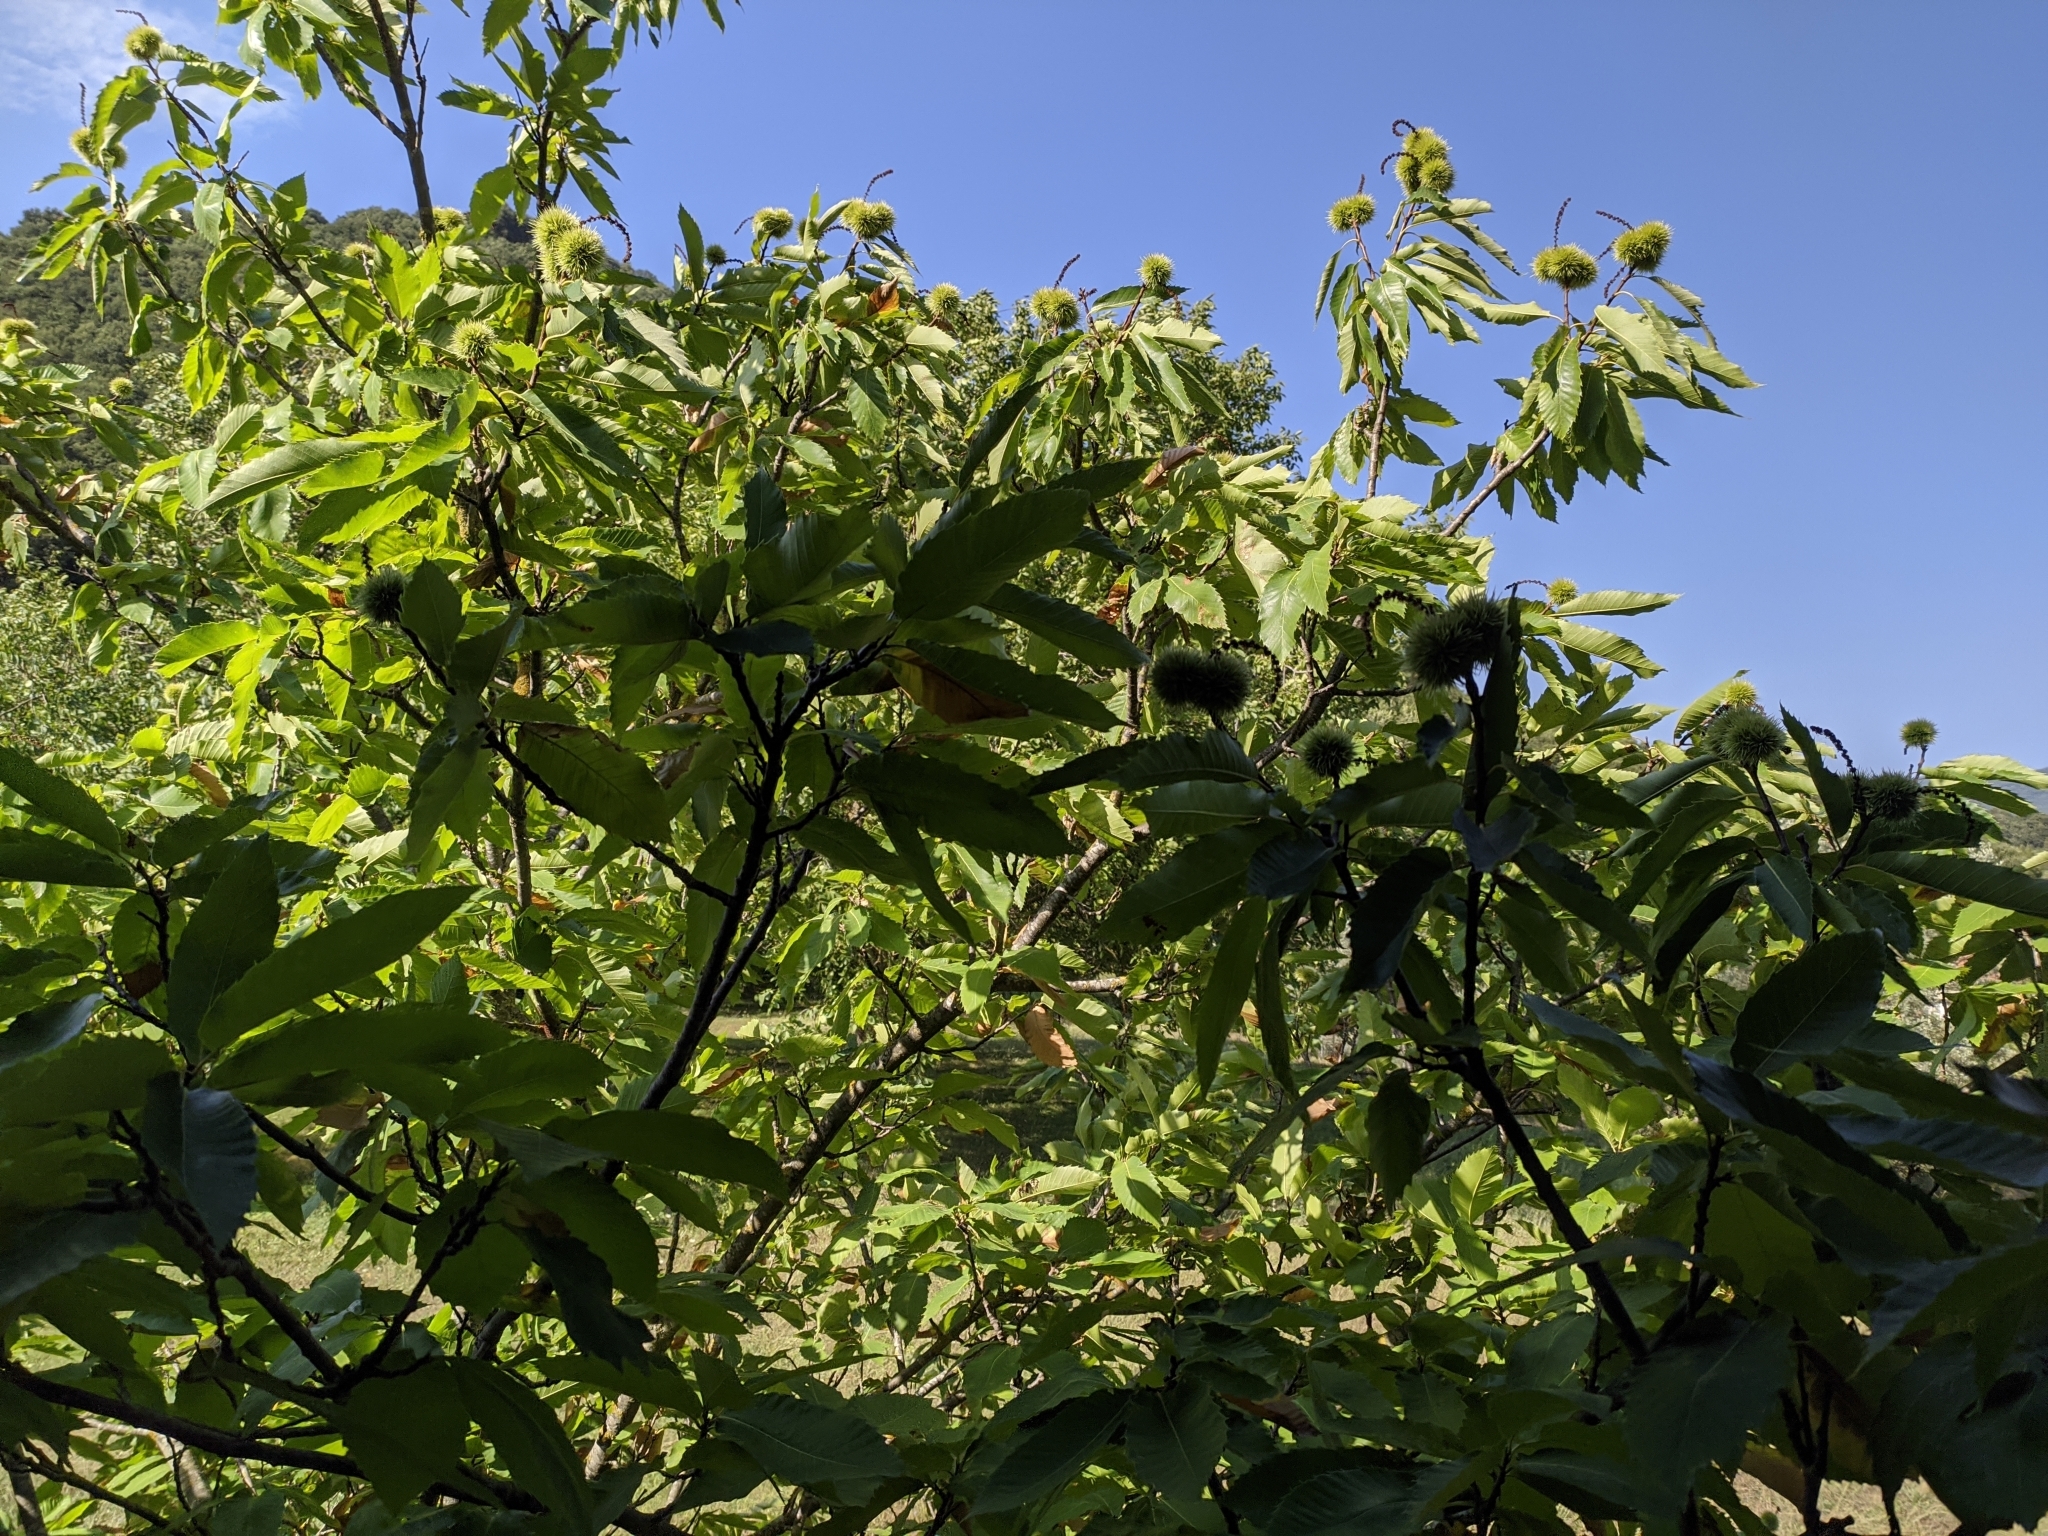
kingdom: Plantae
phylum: Tracheophyta
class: Magnoliopsida
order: Fagales
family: Fagaceae
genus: Castanea
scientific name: Castanea sativa
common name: Sweet chestnut
